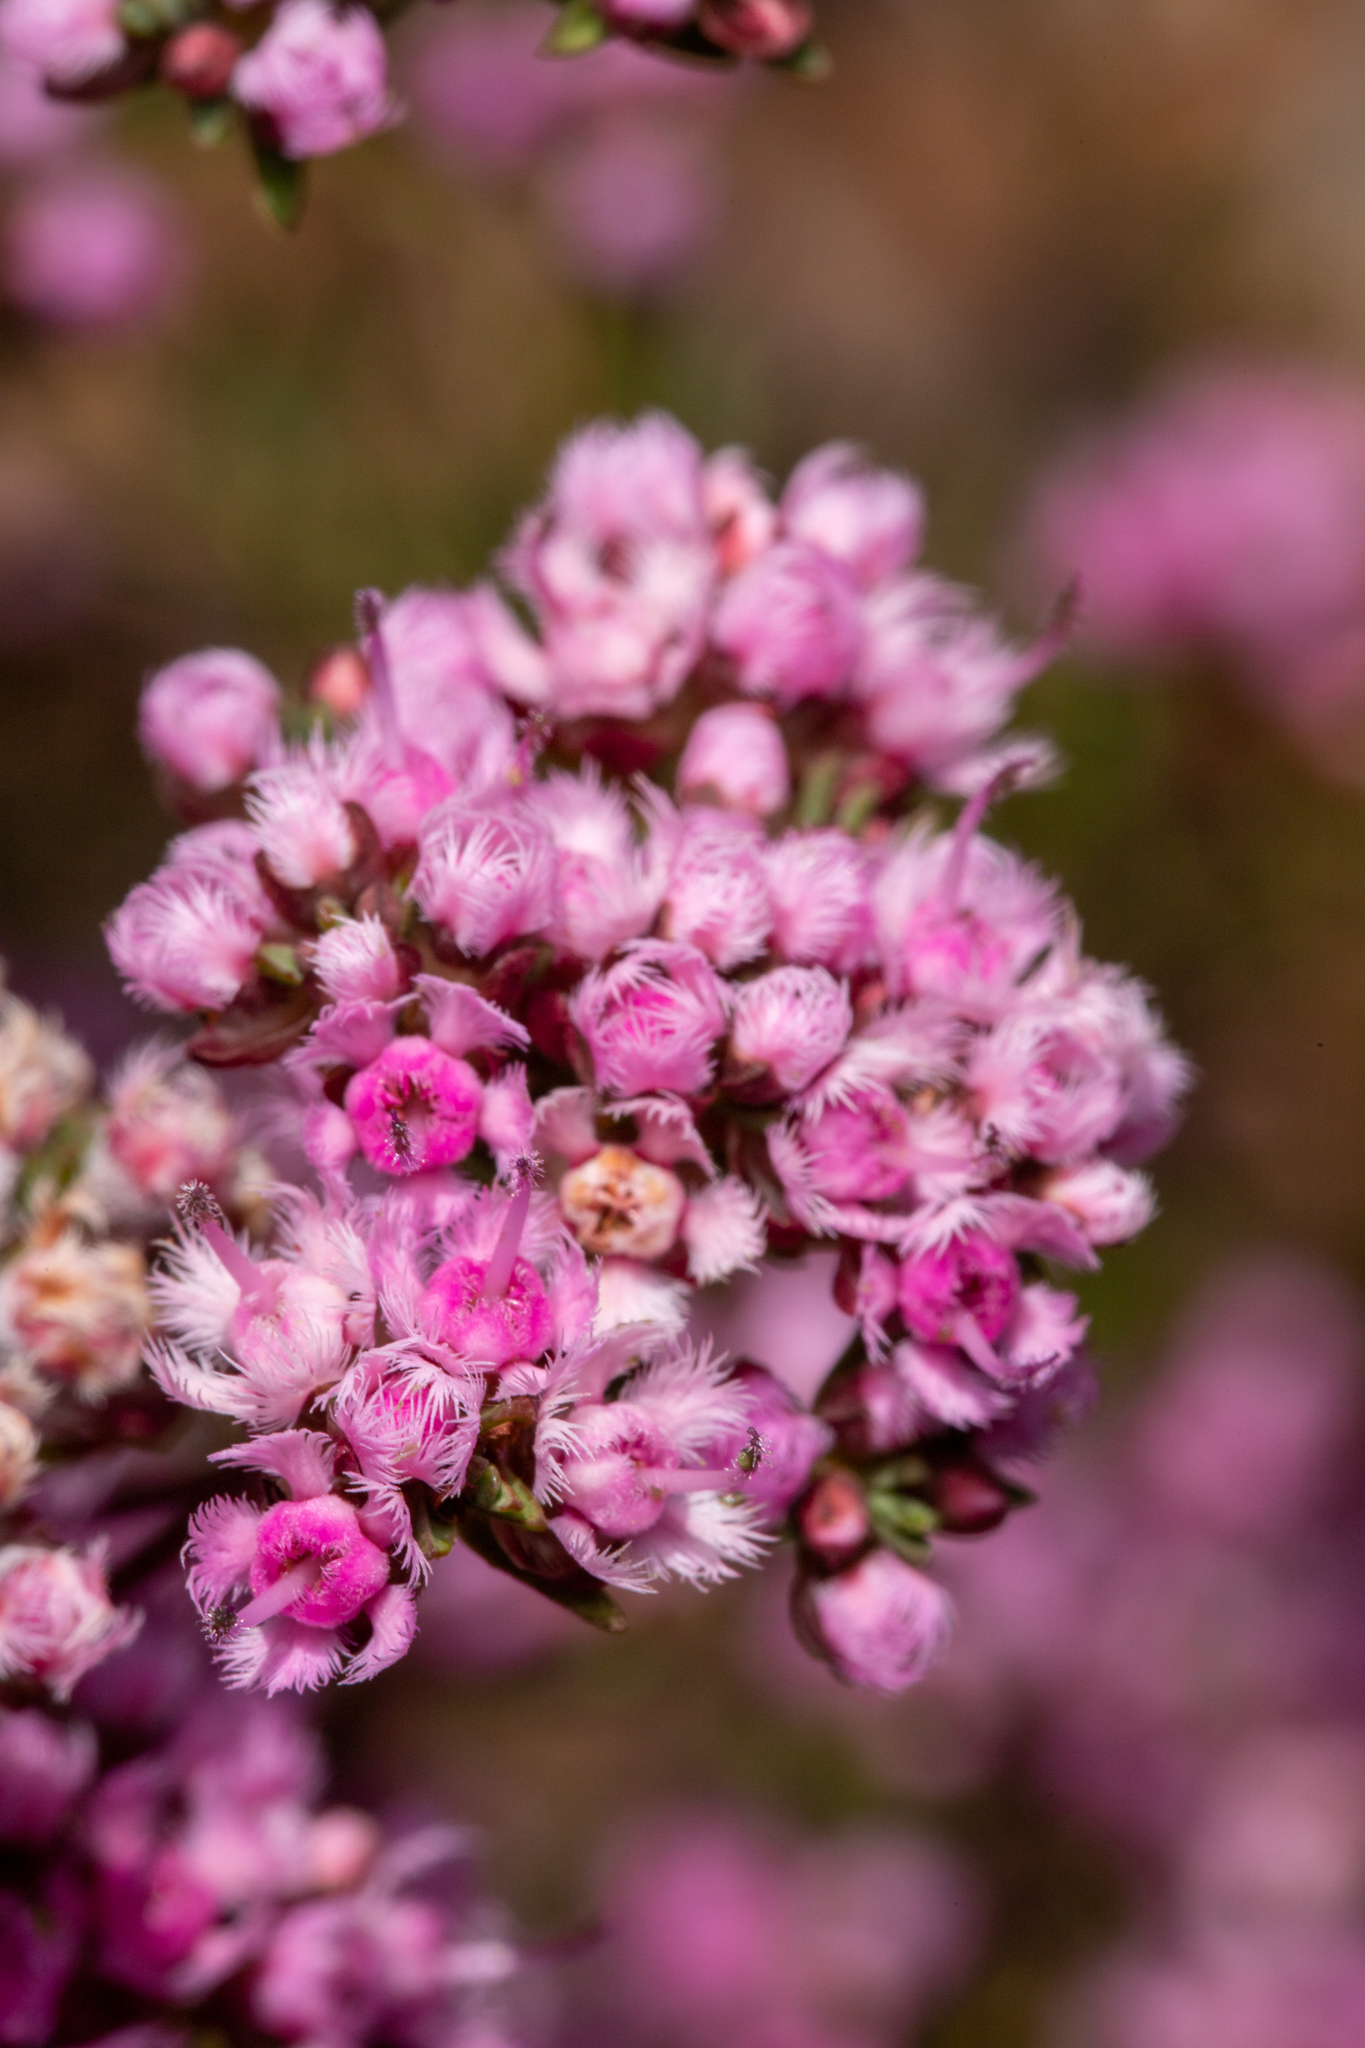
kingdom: Plantae
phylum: Tracheophyta
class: Magnoliopsida
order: Myrtales
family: Myrtaceae
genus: Verticordia
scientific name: Verticordia densiflora
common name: Compact feather-flower
